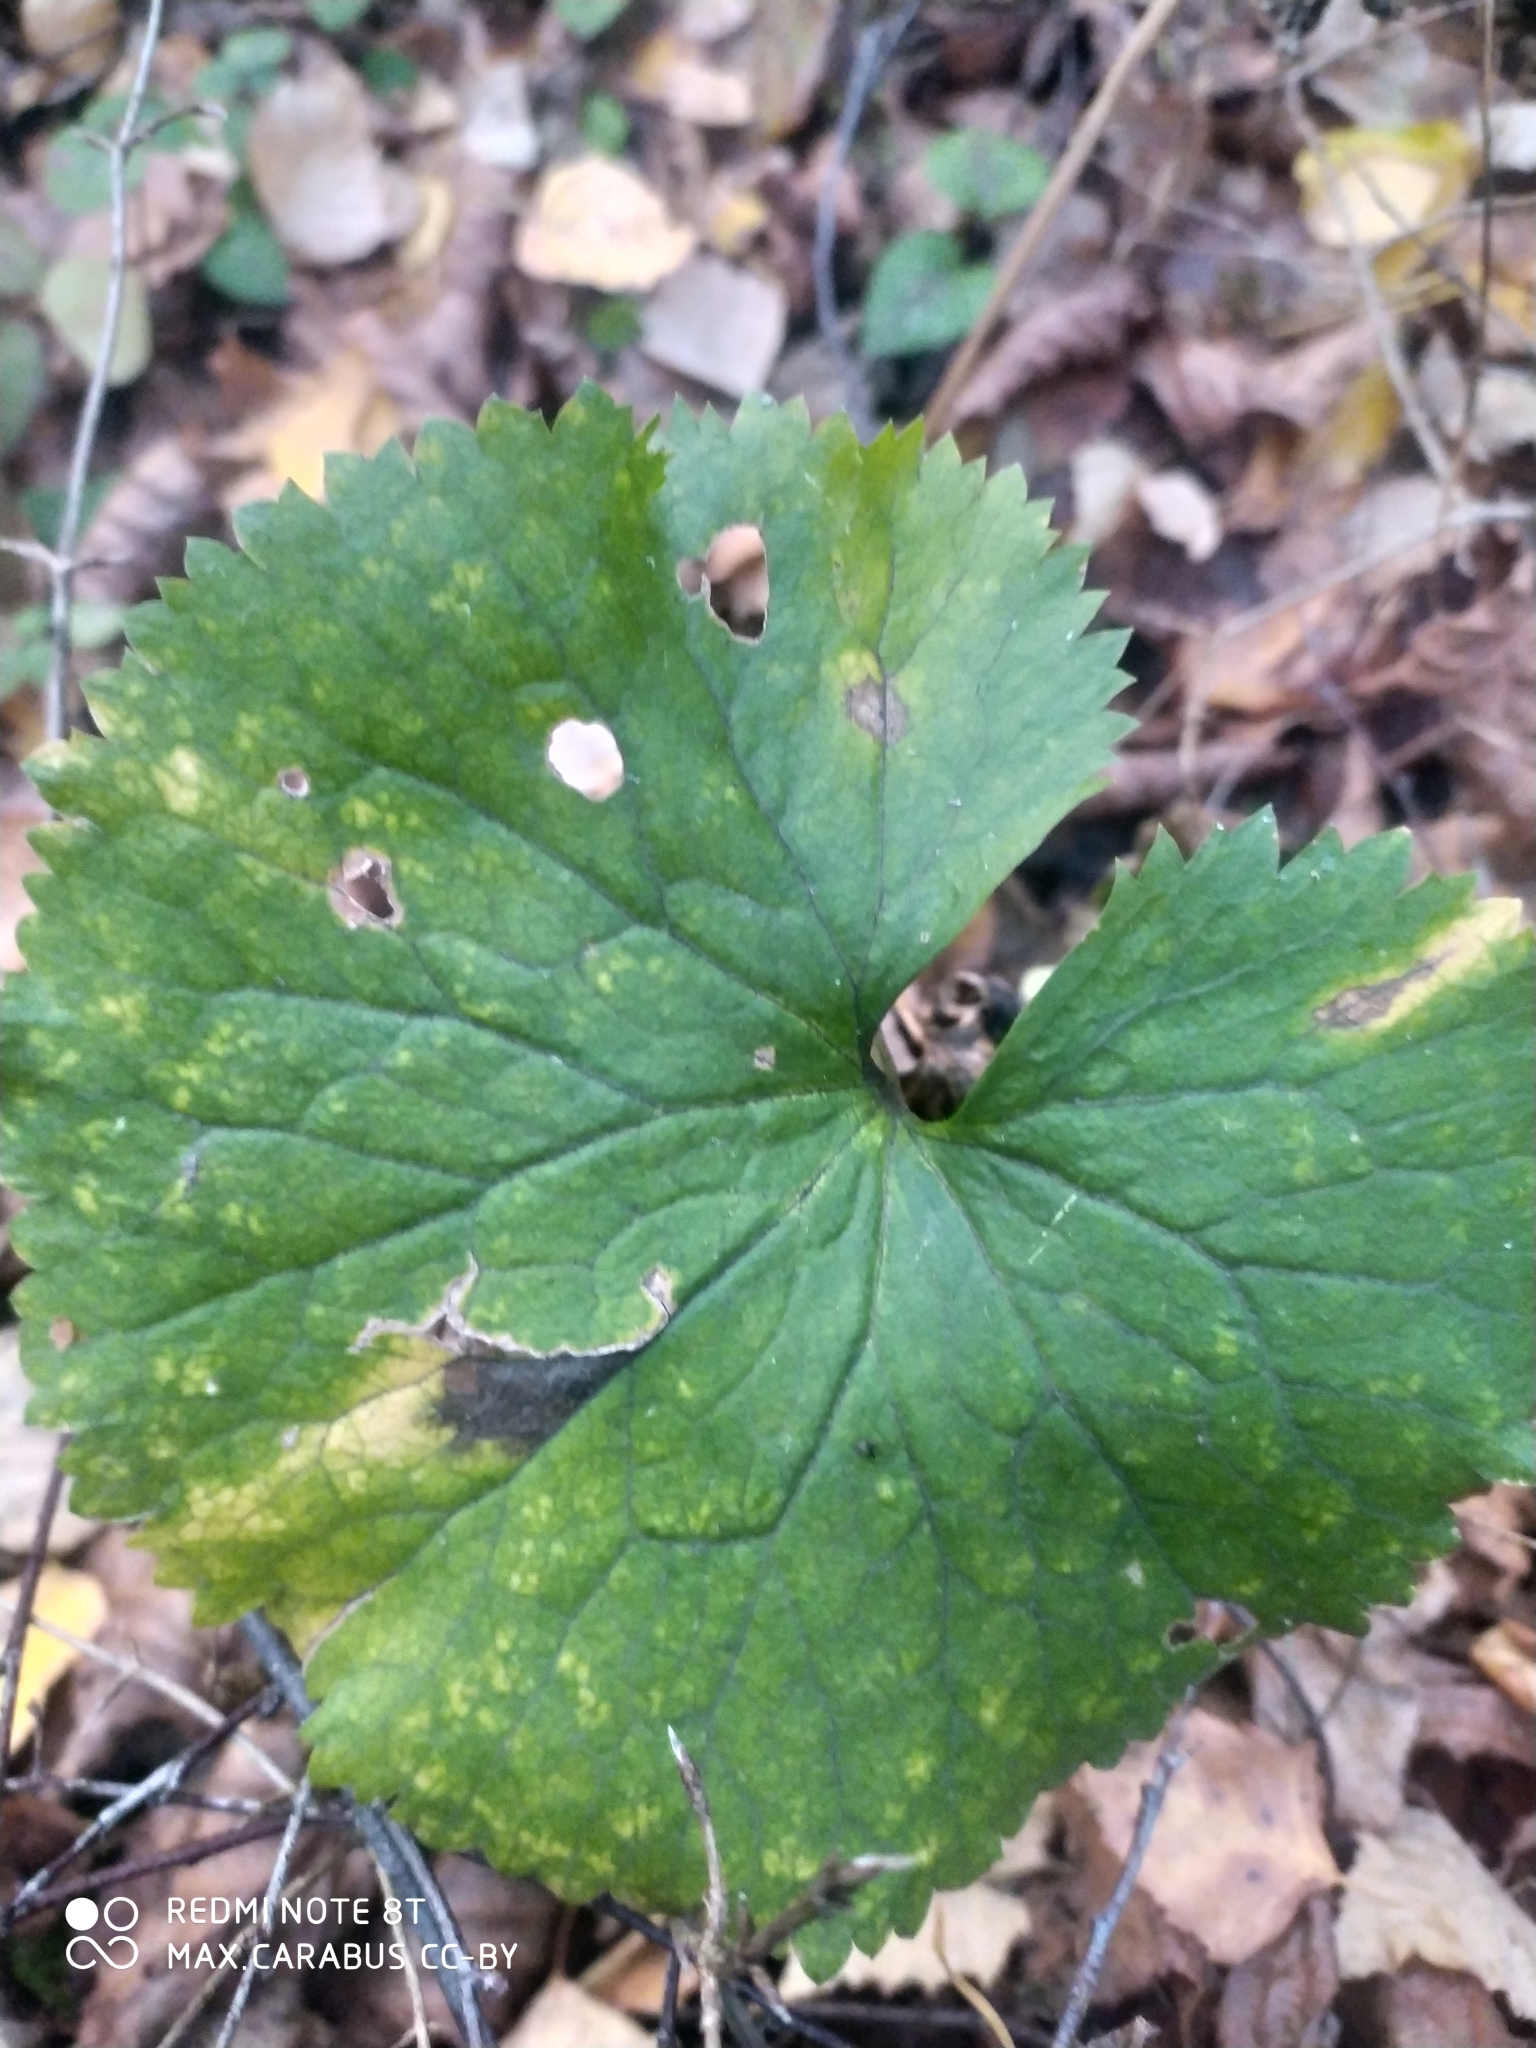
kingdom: Plantae
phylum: Tracheophyta
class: Magnoliopsida
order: Ranunculales
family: Ranunculaceae
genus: Ranunculus
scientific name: Ranunculus cassubicus
